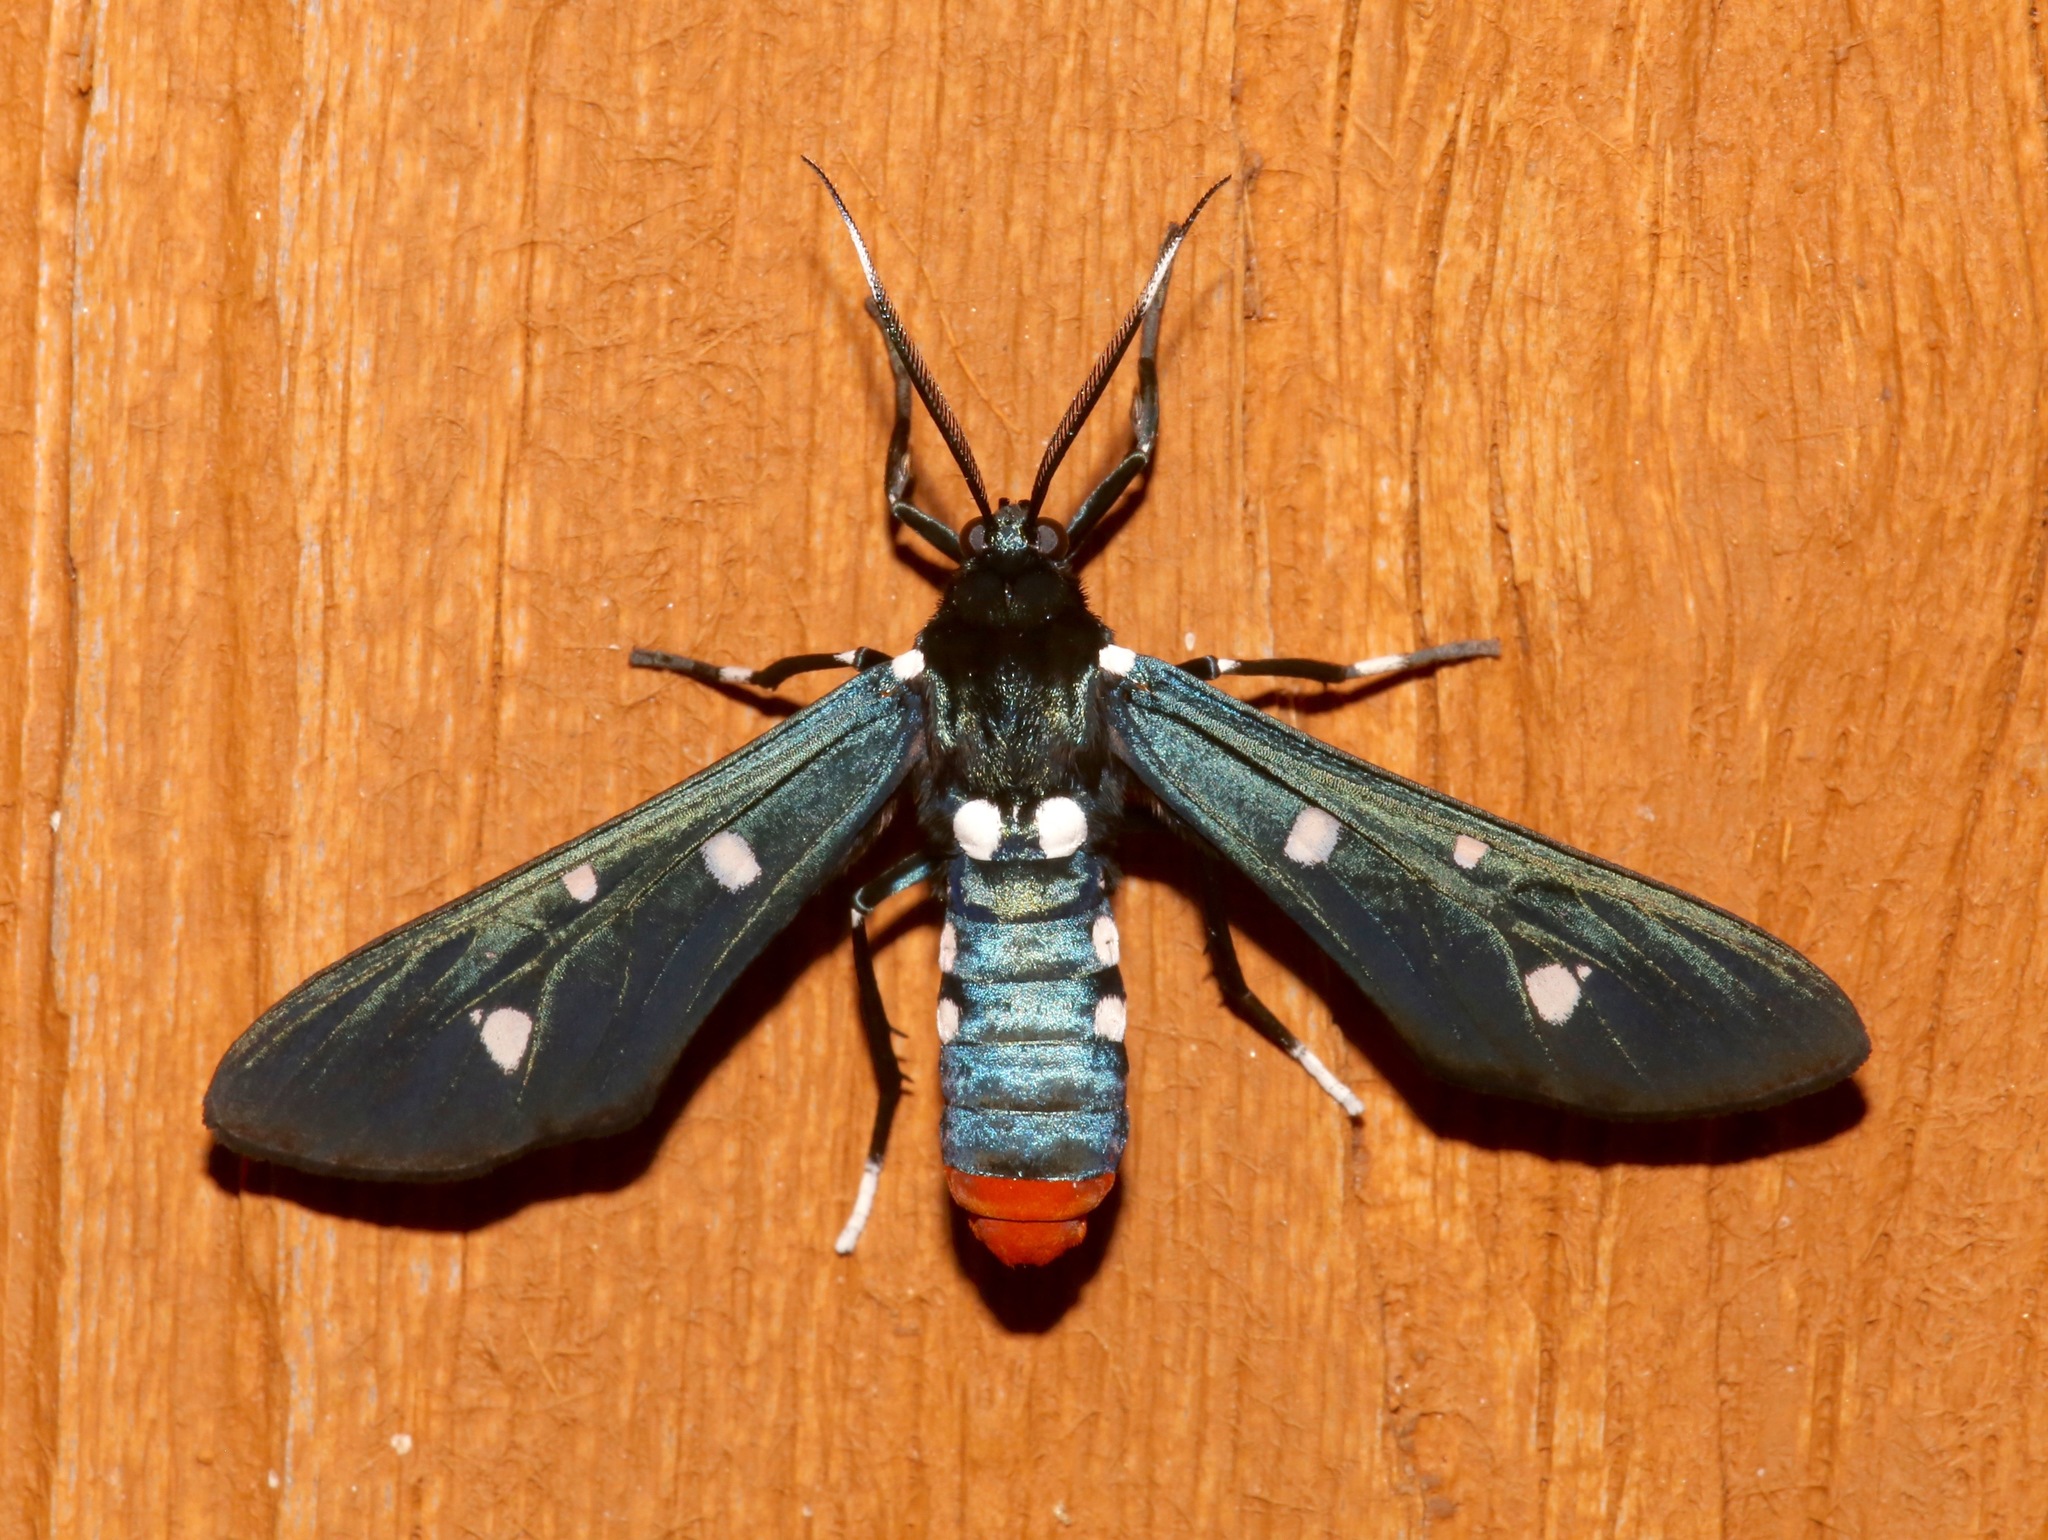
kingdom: Animalia
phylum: Arthropoda
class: Insecta
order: Lepidoptera
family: Erebidae
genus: Syntomeida
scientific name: Syntomeida epilais
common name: Polka-dot wasp moth
